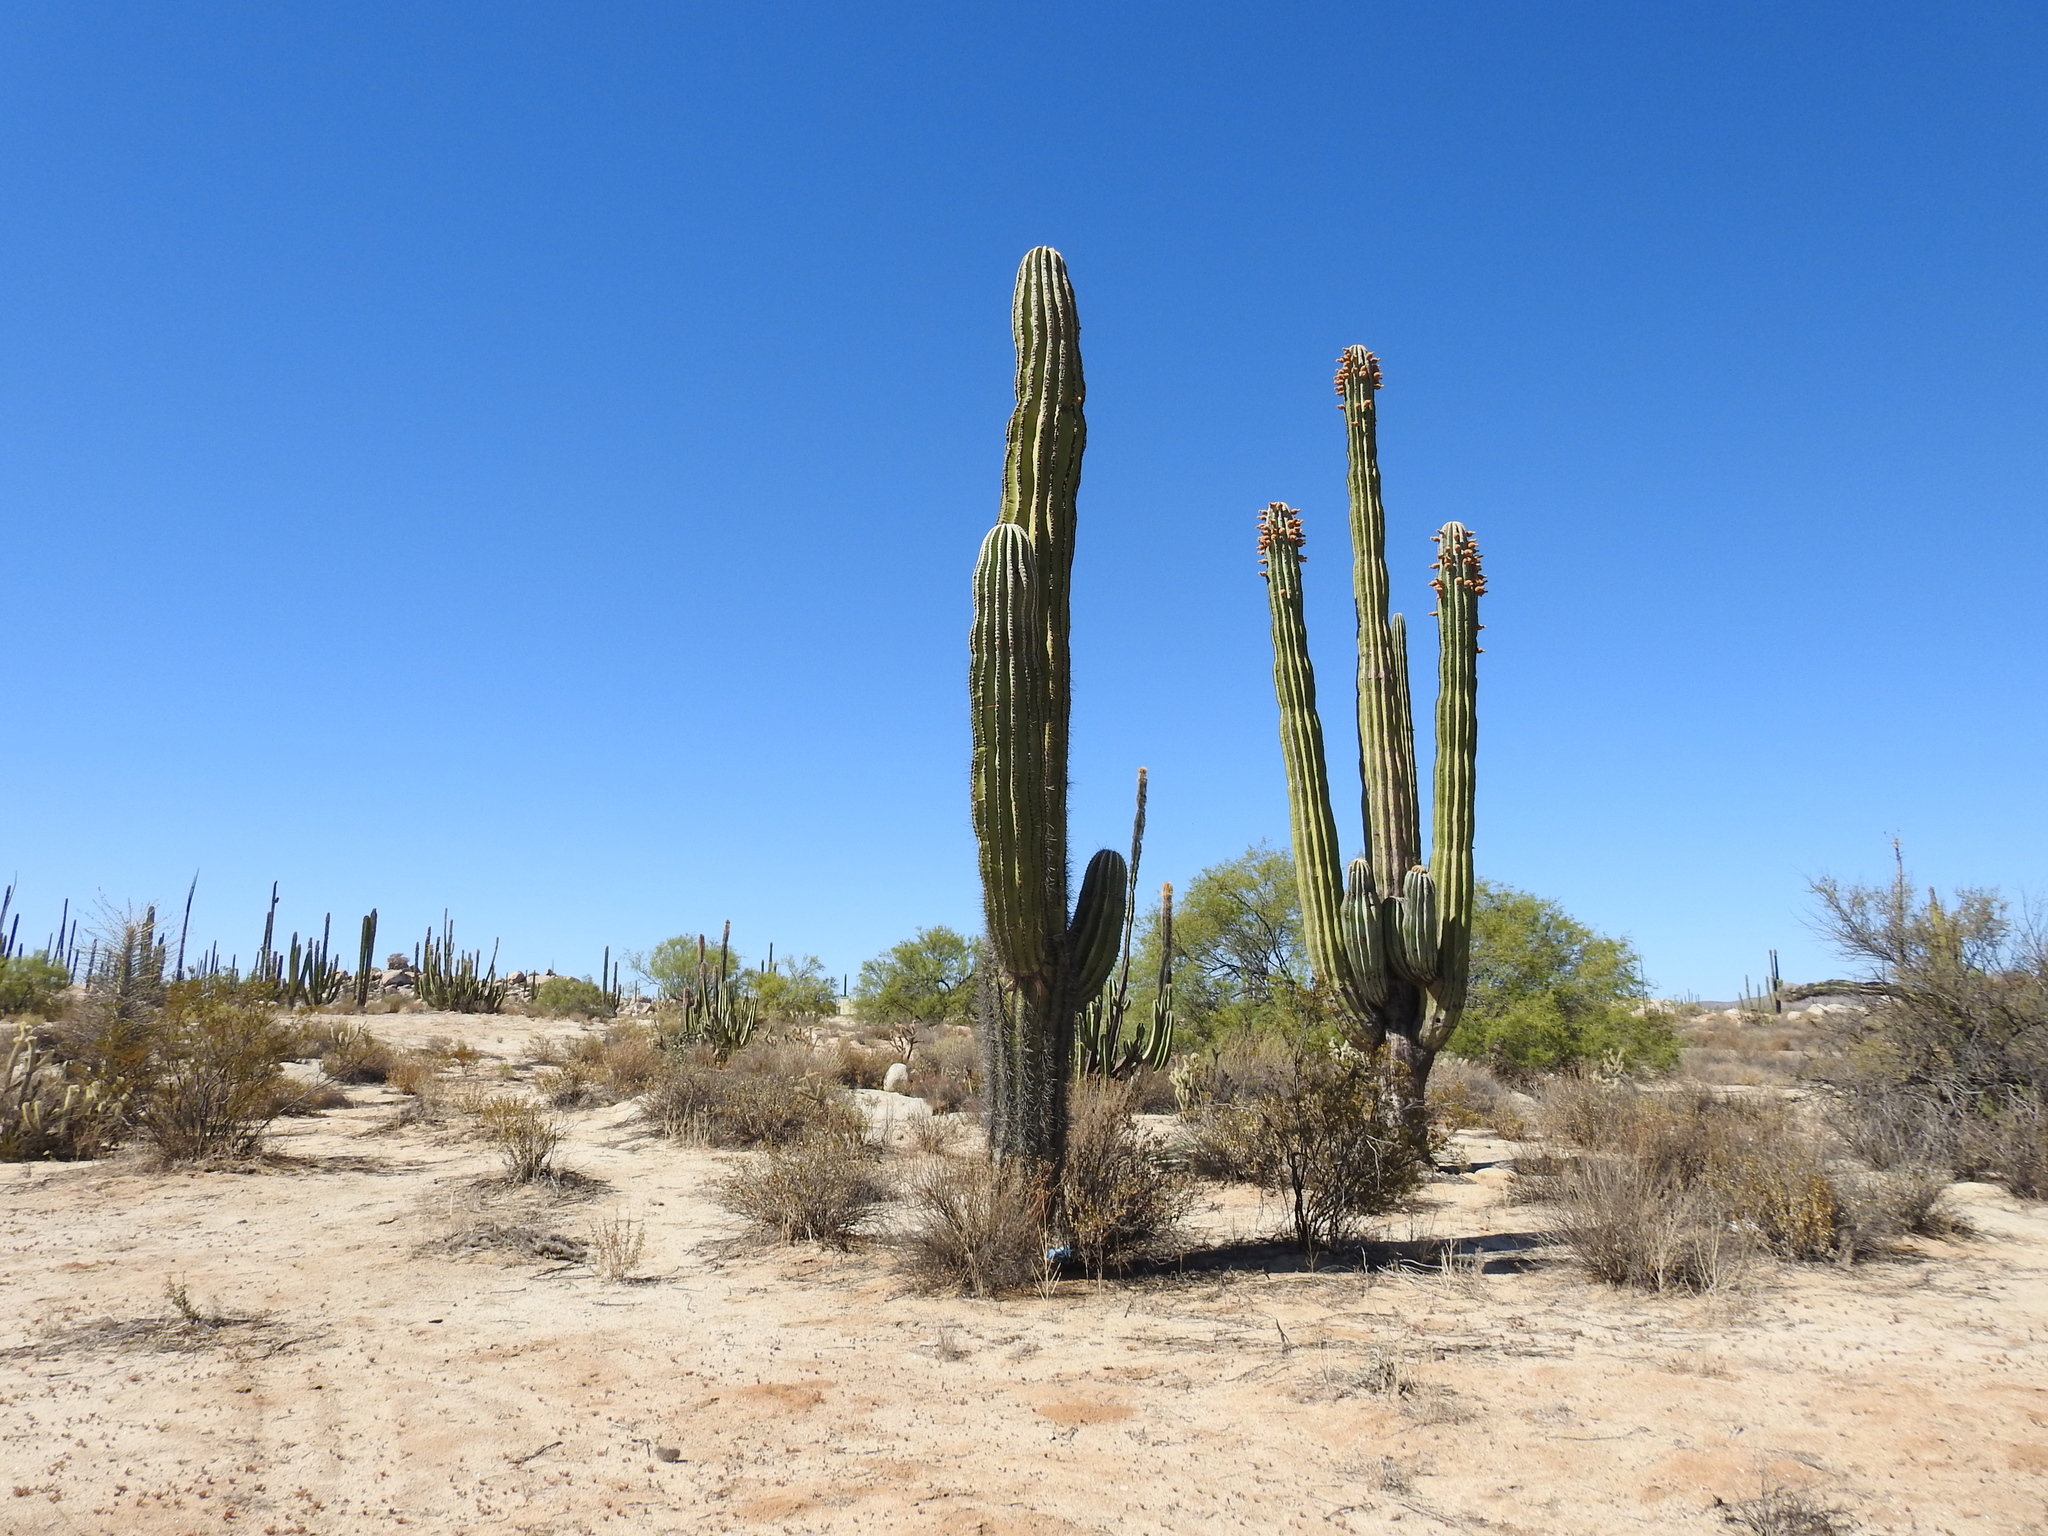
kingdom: Plantae
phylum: Tracheophyta
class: Magnoliopsida
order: Caryophyllales
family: Cactaceae
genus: Pachycereus
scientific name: Pachycereus pringlei
